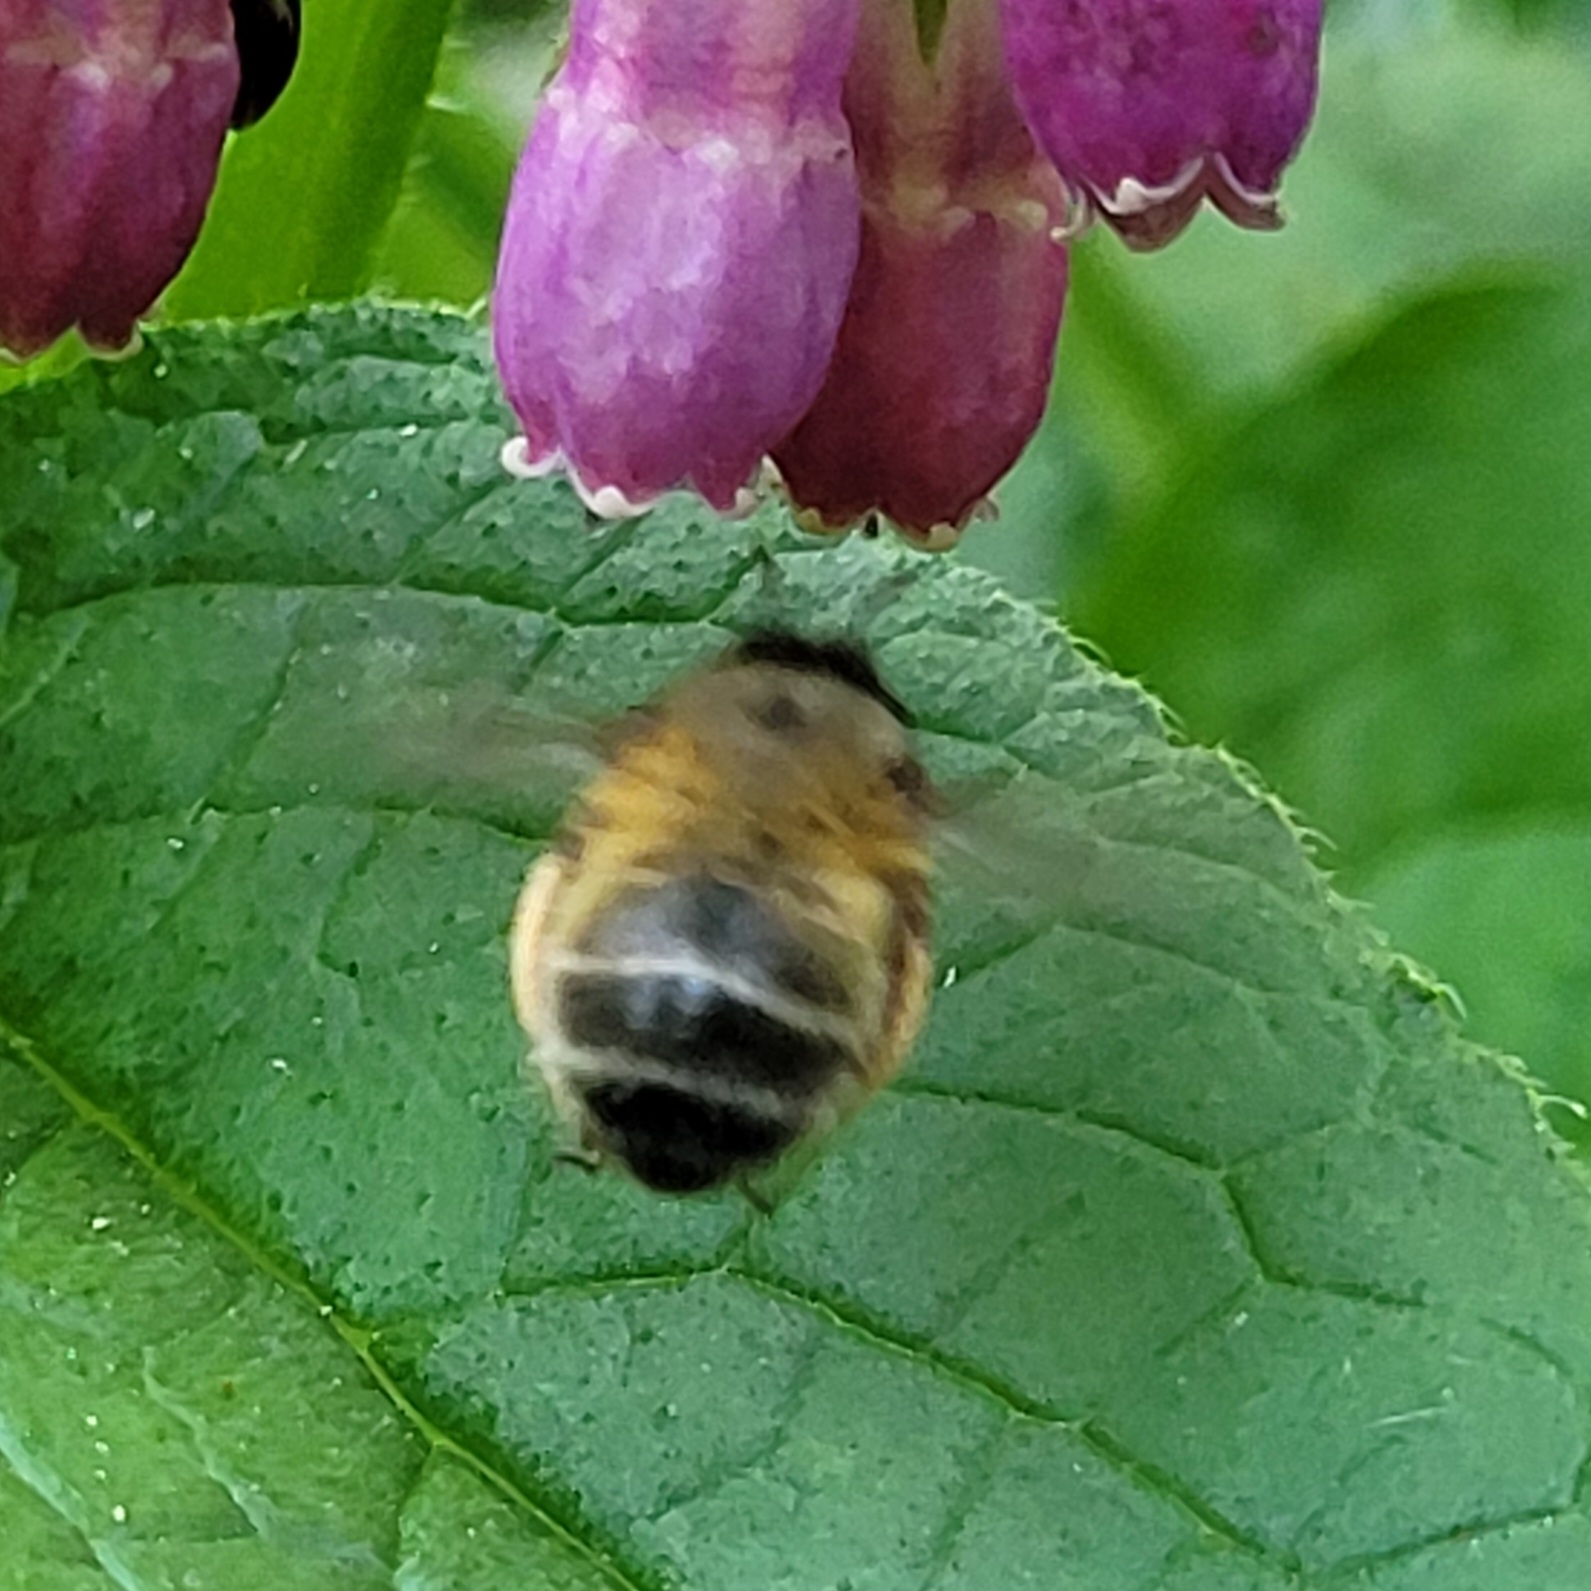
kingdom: Animalia
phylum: Arthropoda
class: Insecta
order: Hymenoptera
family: Apidae
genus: Anthophora
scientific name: Anthophora plumipes
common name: Hairy-footed flower bee
